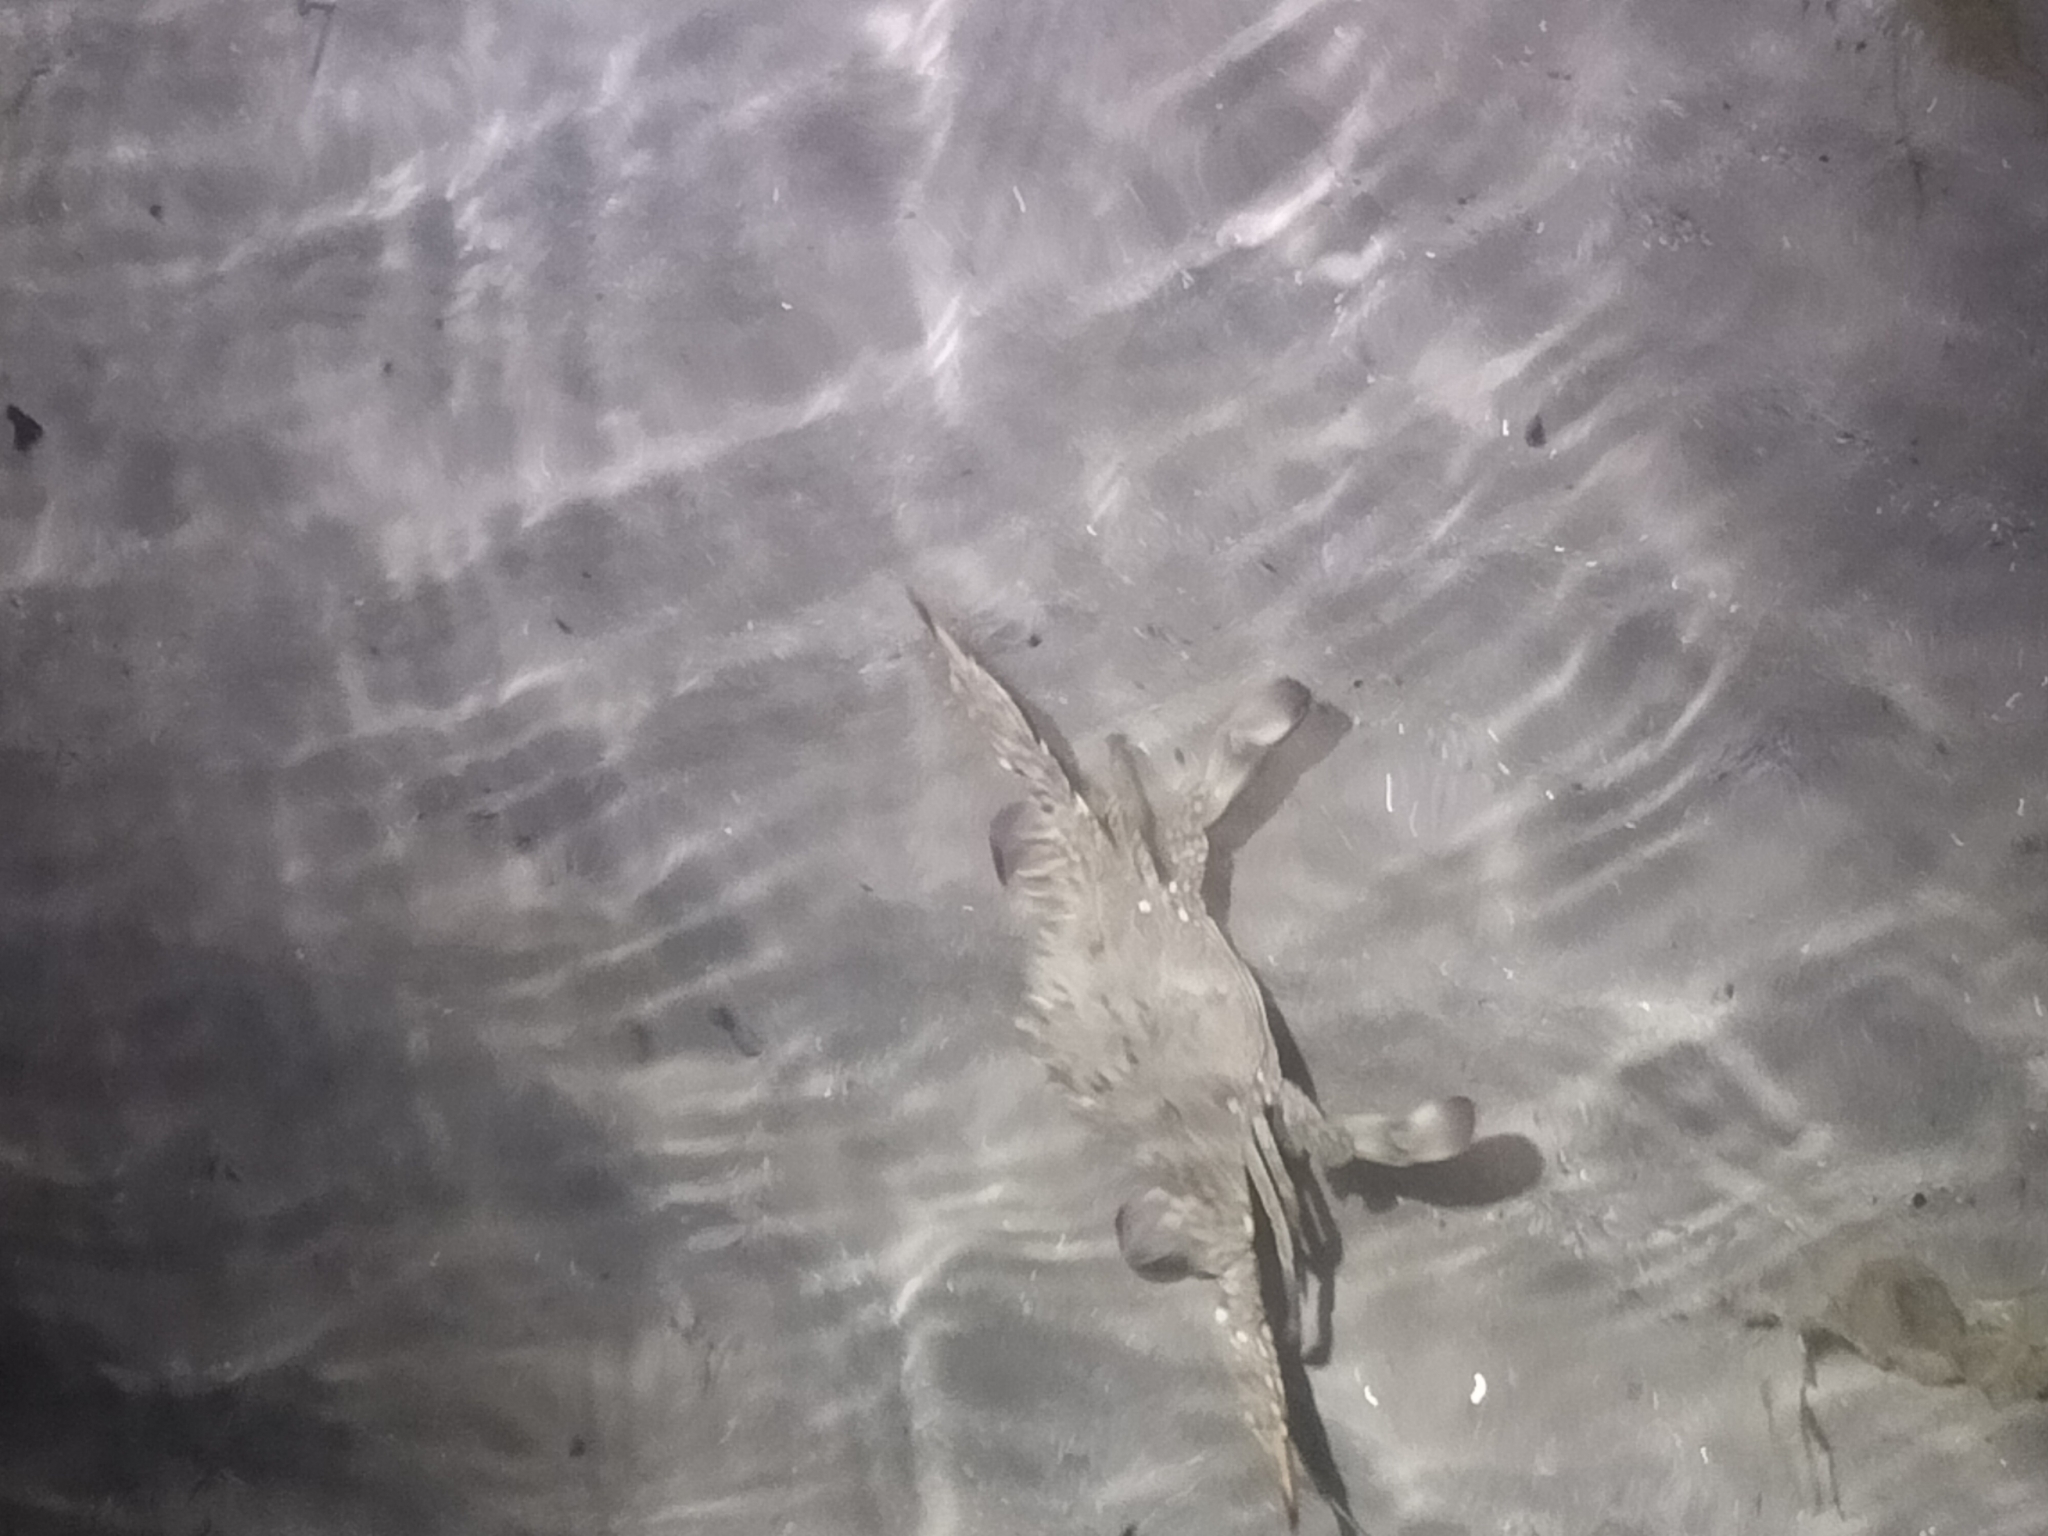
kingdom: Animalia
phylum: Arthropoda
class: Malacostraca
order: Decapoda
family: Portunidae
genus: Portunus
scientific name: Portunus armatus
